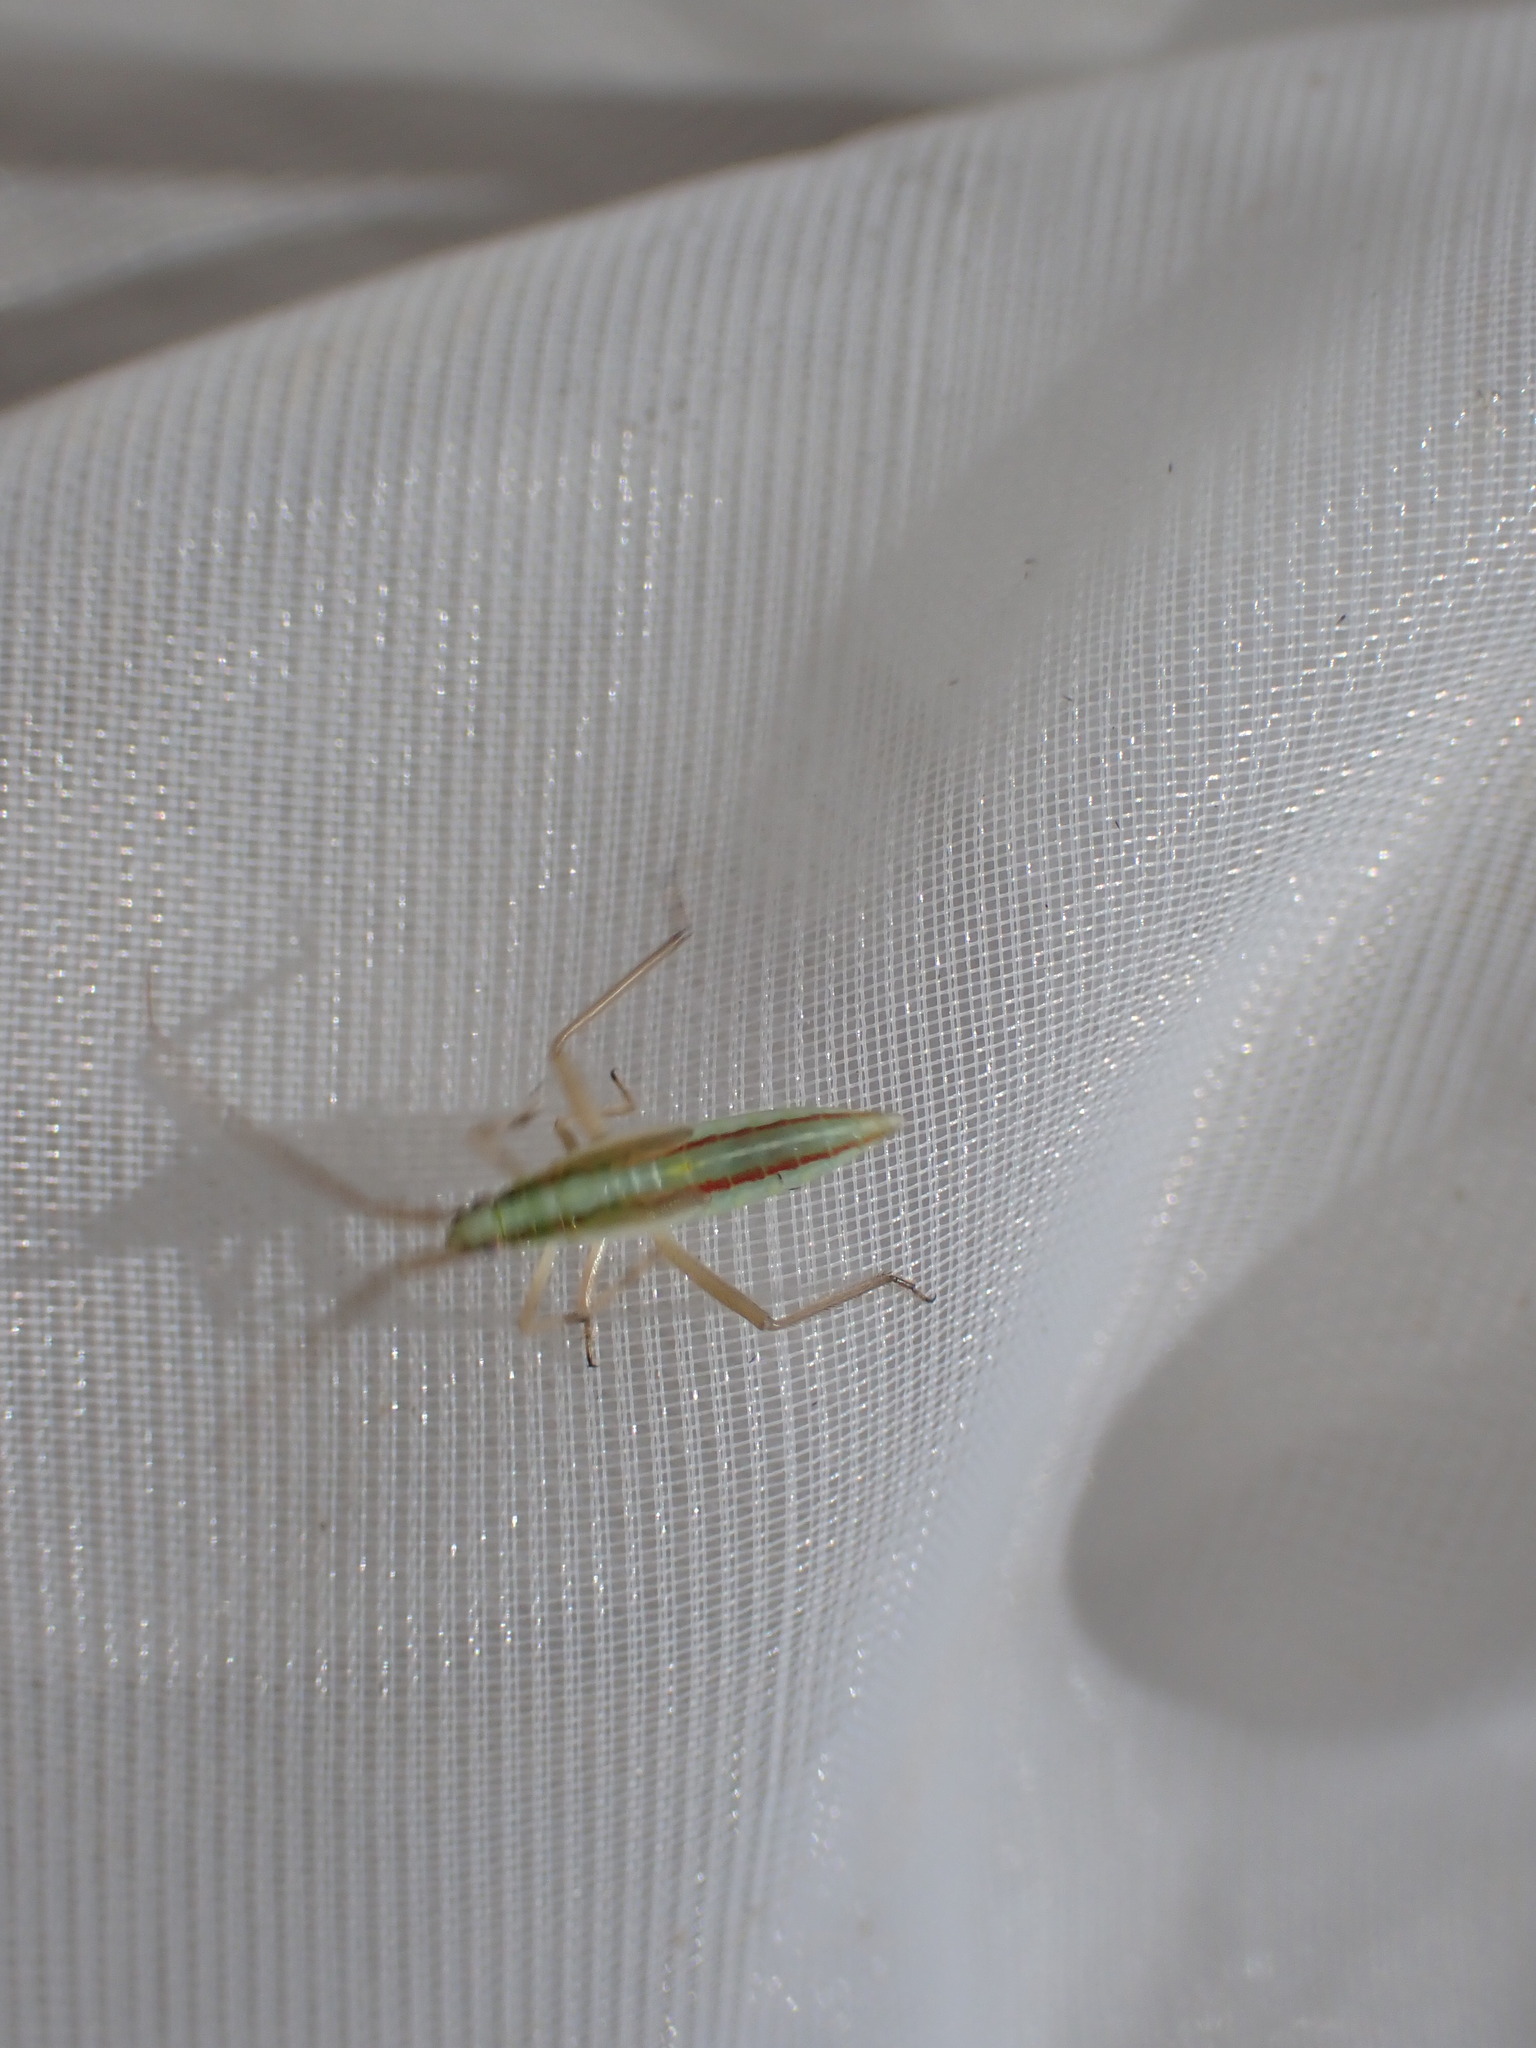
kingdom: Animalia
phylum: Arthropoda
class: Insecta
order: Hemiptera
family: Rhopalidae
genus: Myrmus
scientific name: Myrmus miriformis
